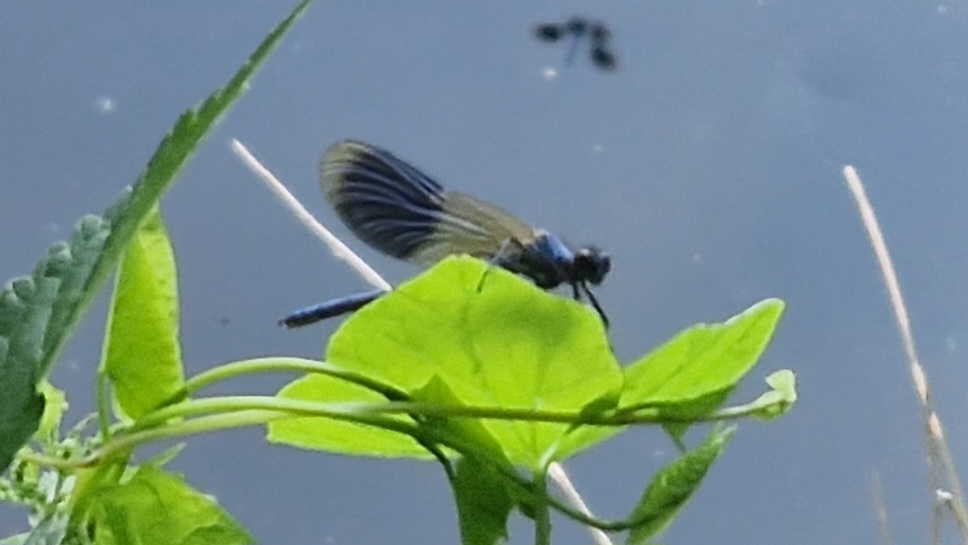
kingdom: Animalia
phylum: Arthropoda
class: Insecta
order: Odonata
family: Calopterygidae
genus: Calopteryx
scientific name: Calopteryx splendens
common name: Banded demoiselle
